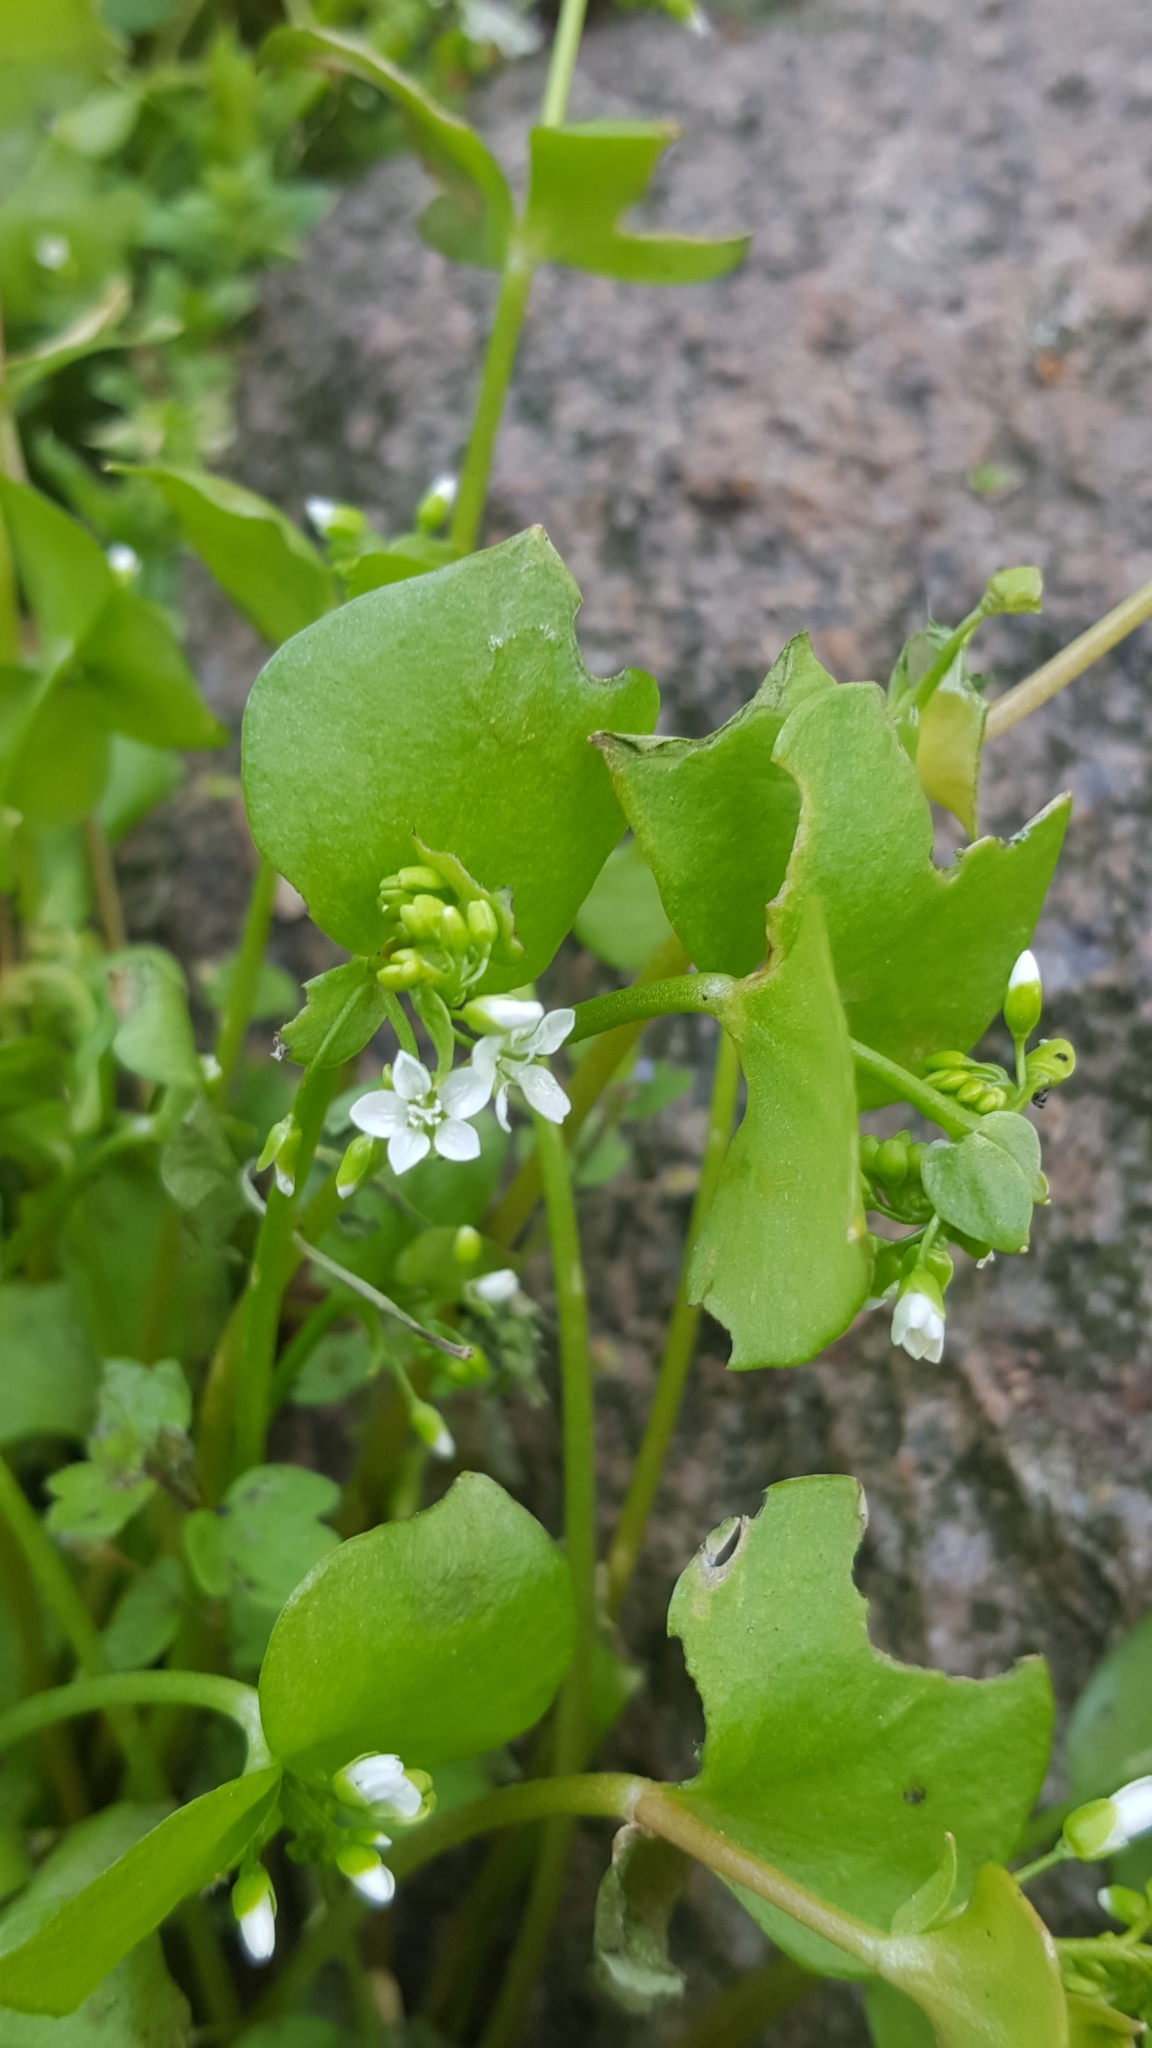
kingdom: Plantae
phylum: Tracheophyta
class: Magnoliopsida
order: Caryophyllales
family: Montiaceae
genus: Claytonia
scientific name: Claytonia perfoliata
